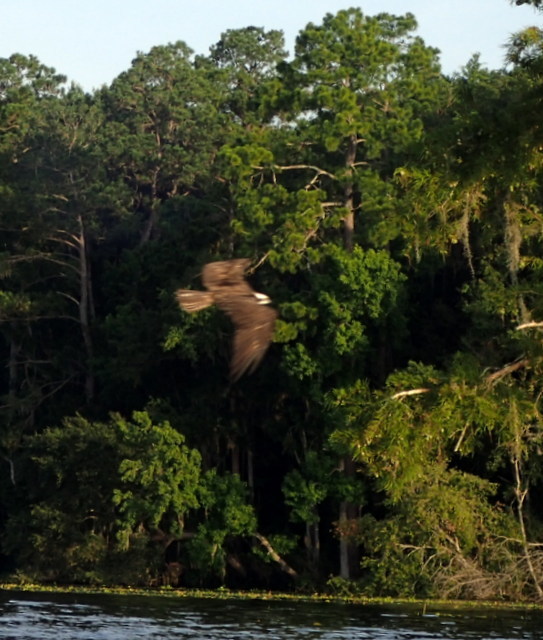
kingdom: Animalia
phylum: Chordata
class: Aves
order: Accipitriformes
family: Pandionidae
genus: Pandion
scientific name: Pandion haliaetus
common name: Osprey
